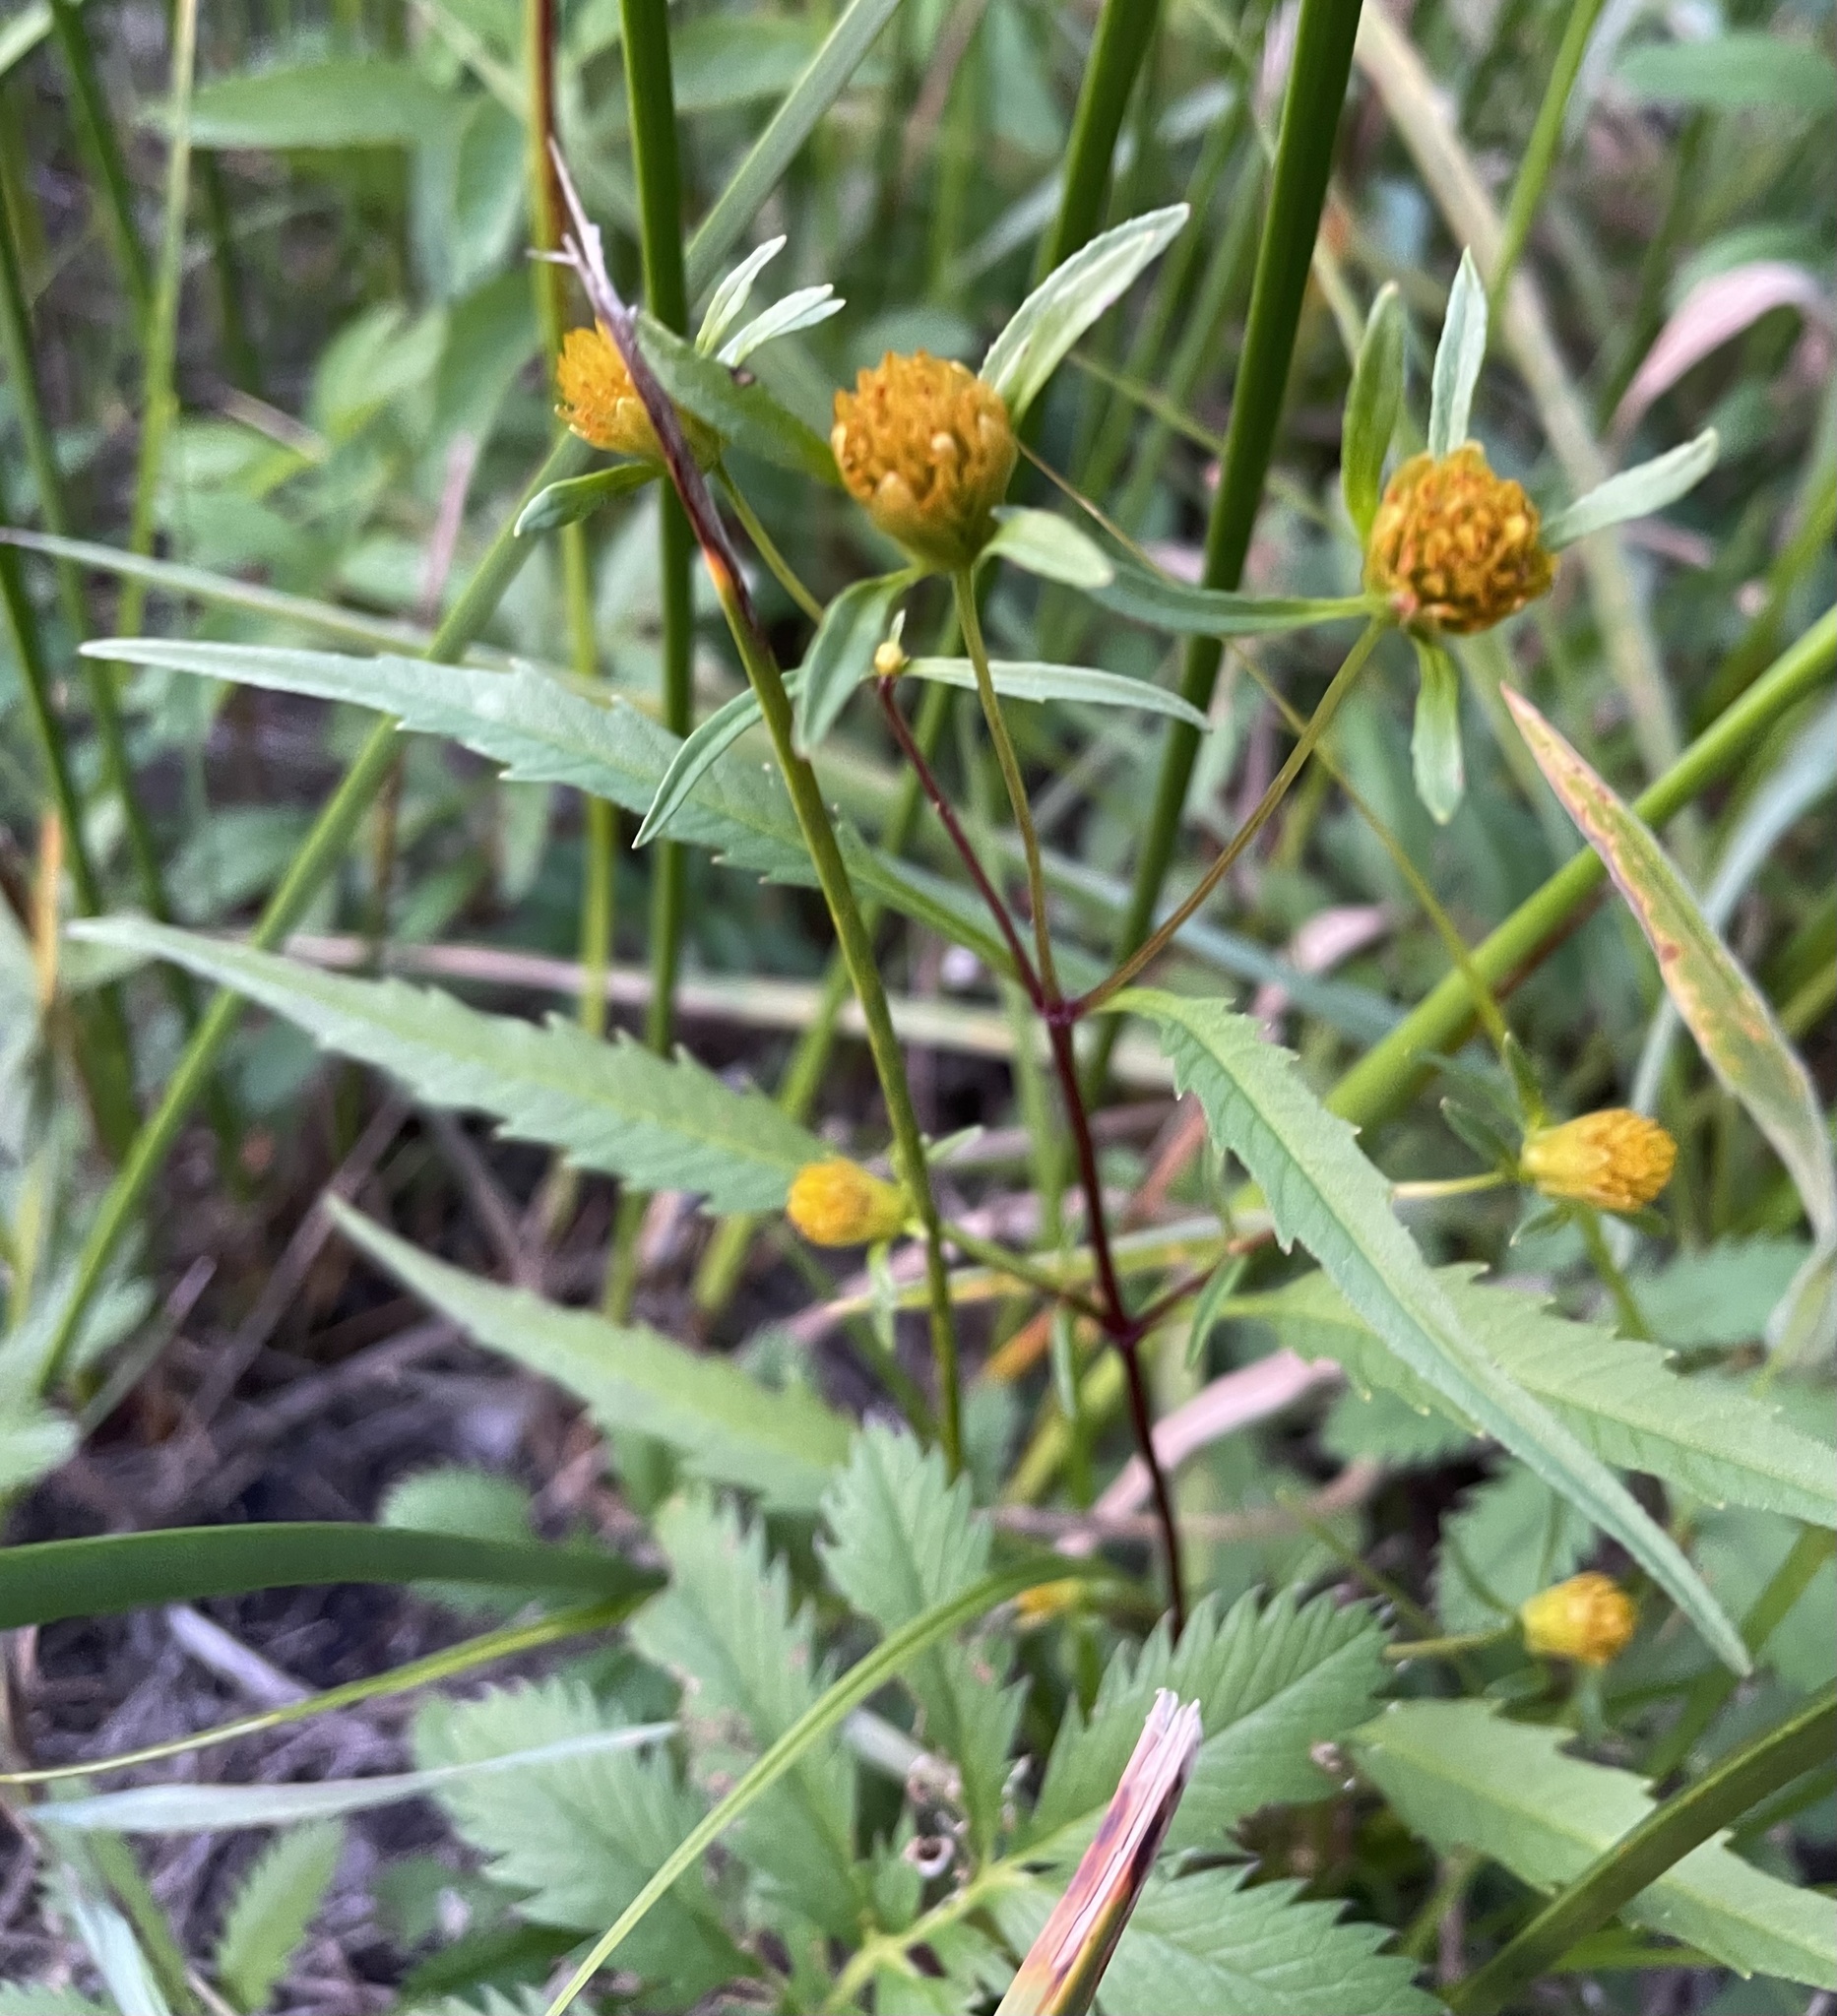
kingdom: Plantae
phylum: Tracheophyta
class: Magnoliopsida
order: Asterales
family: Asteraceae
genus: Bidens
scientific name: Bidens connata
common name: London bur-marigold
